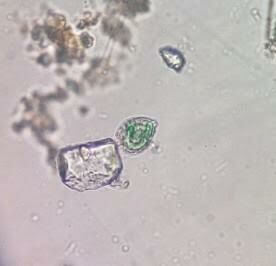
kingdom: Protozoa
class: Filosia
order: Aconchulinida
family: Paulinellidae
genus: Paulinella
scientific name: Paulinella
